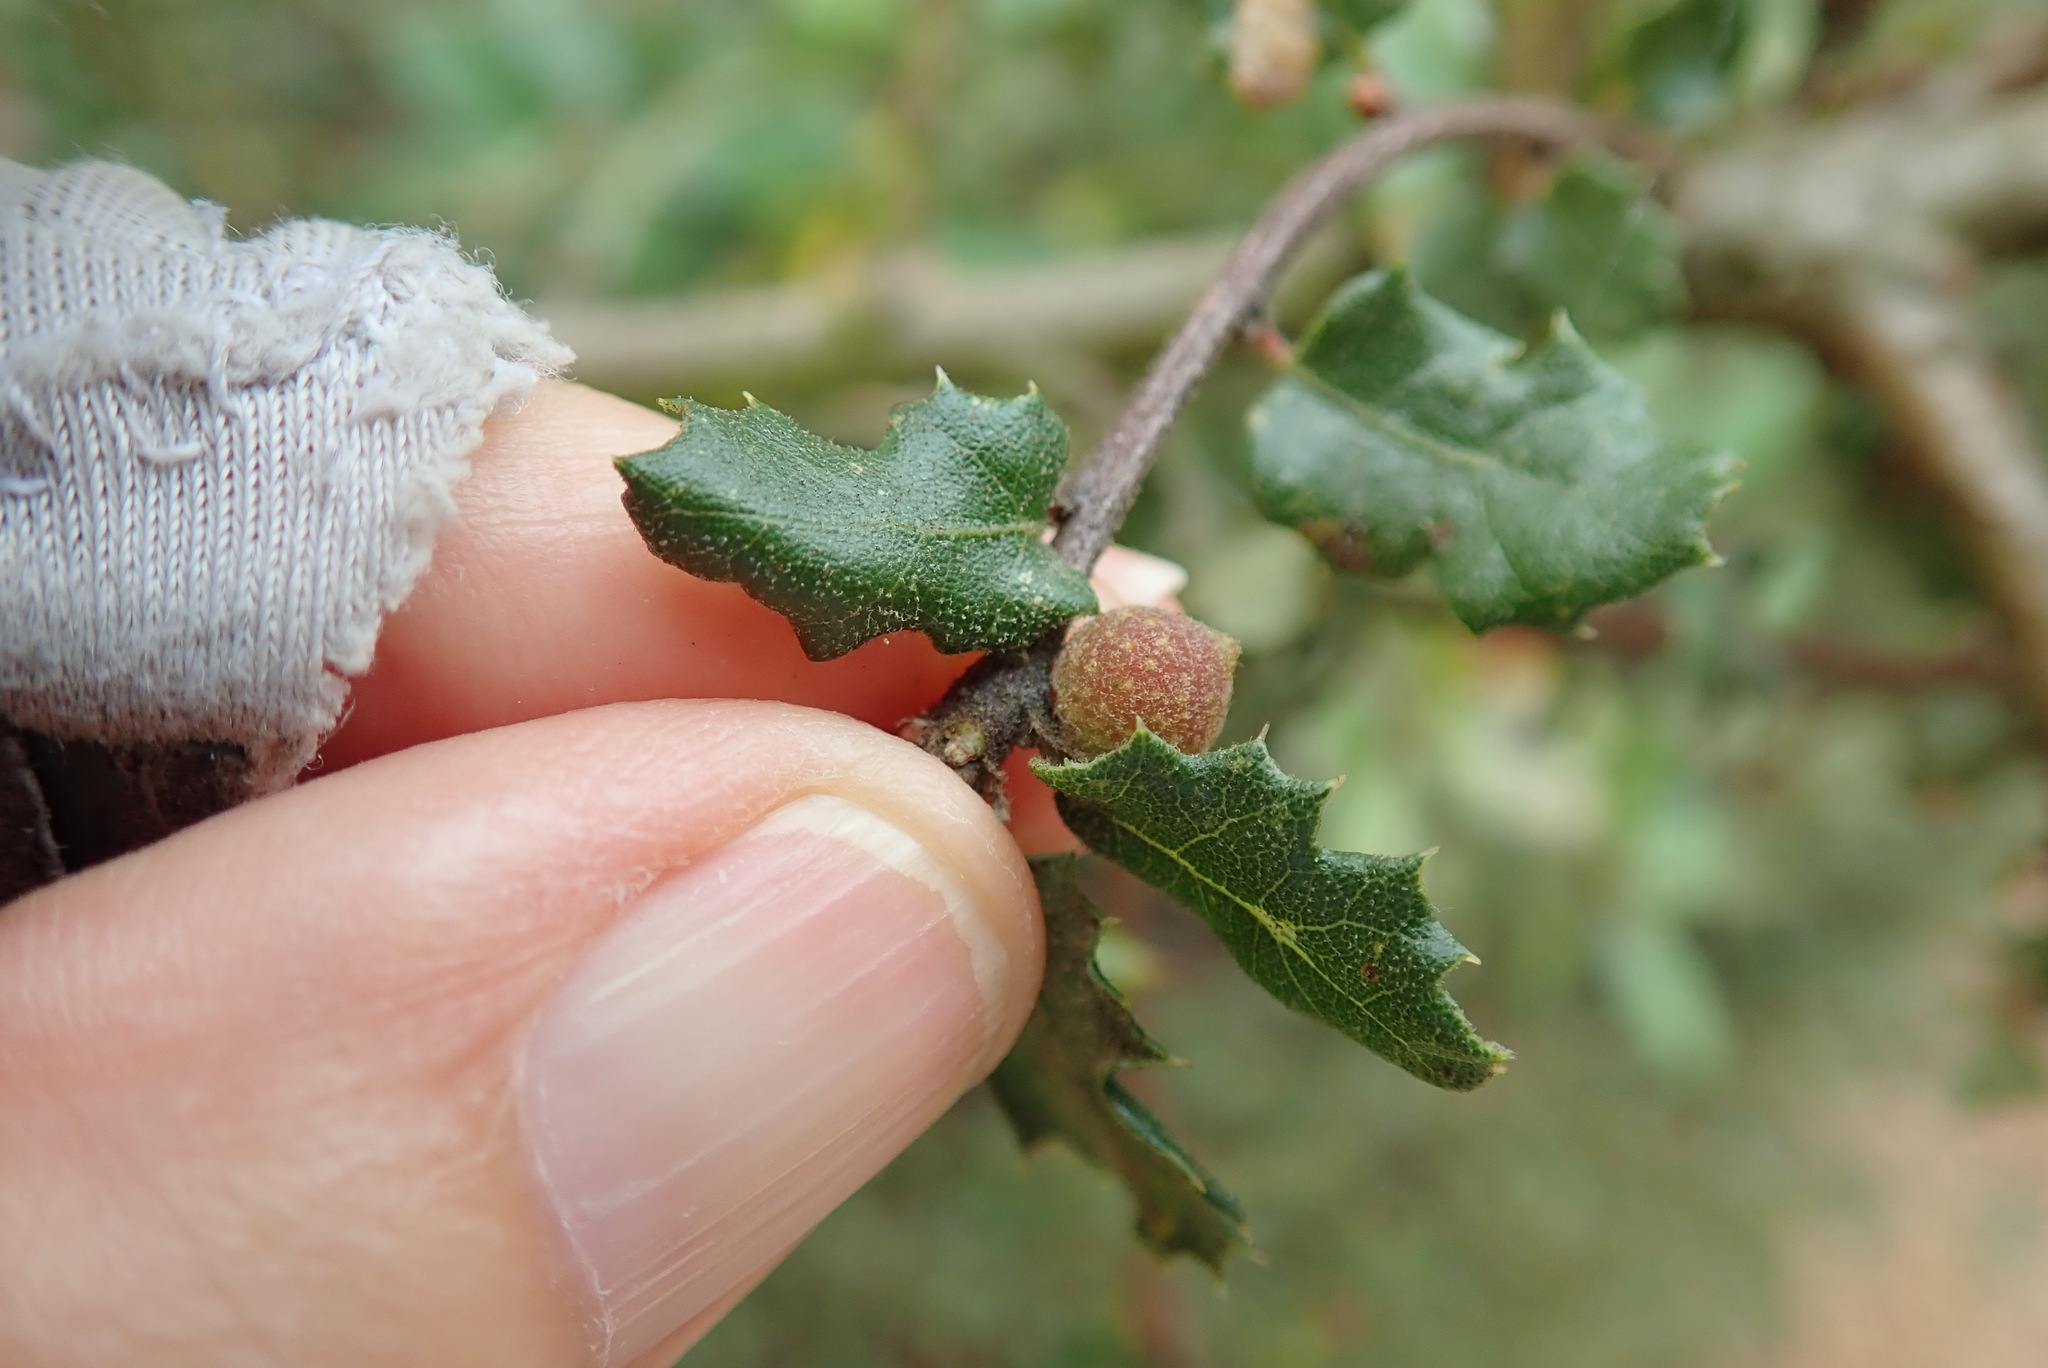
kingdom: Animalia
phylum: Arthropoda
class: Insecta
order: Hymenoptera
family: Cynipidae
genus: Burnettweldia
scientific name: Burnettweldia
